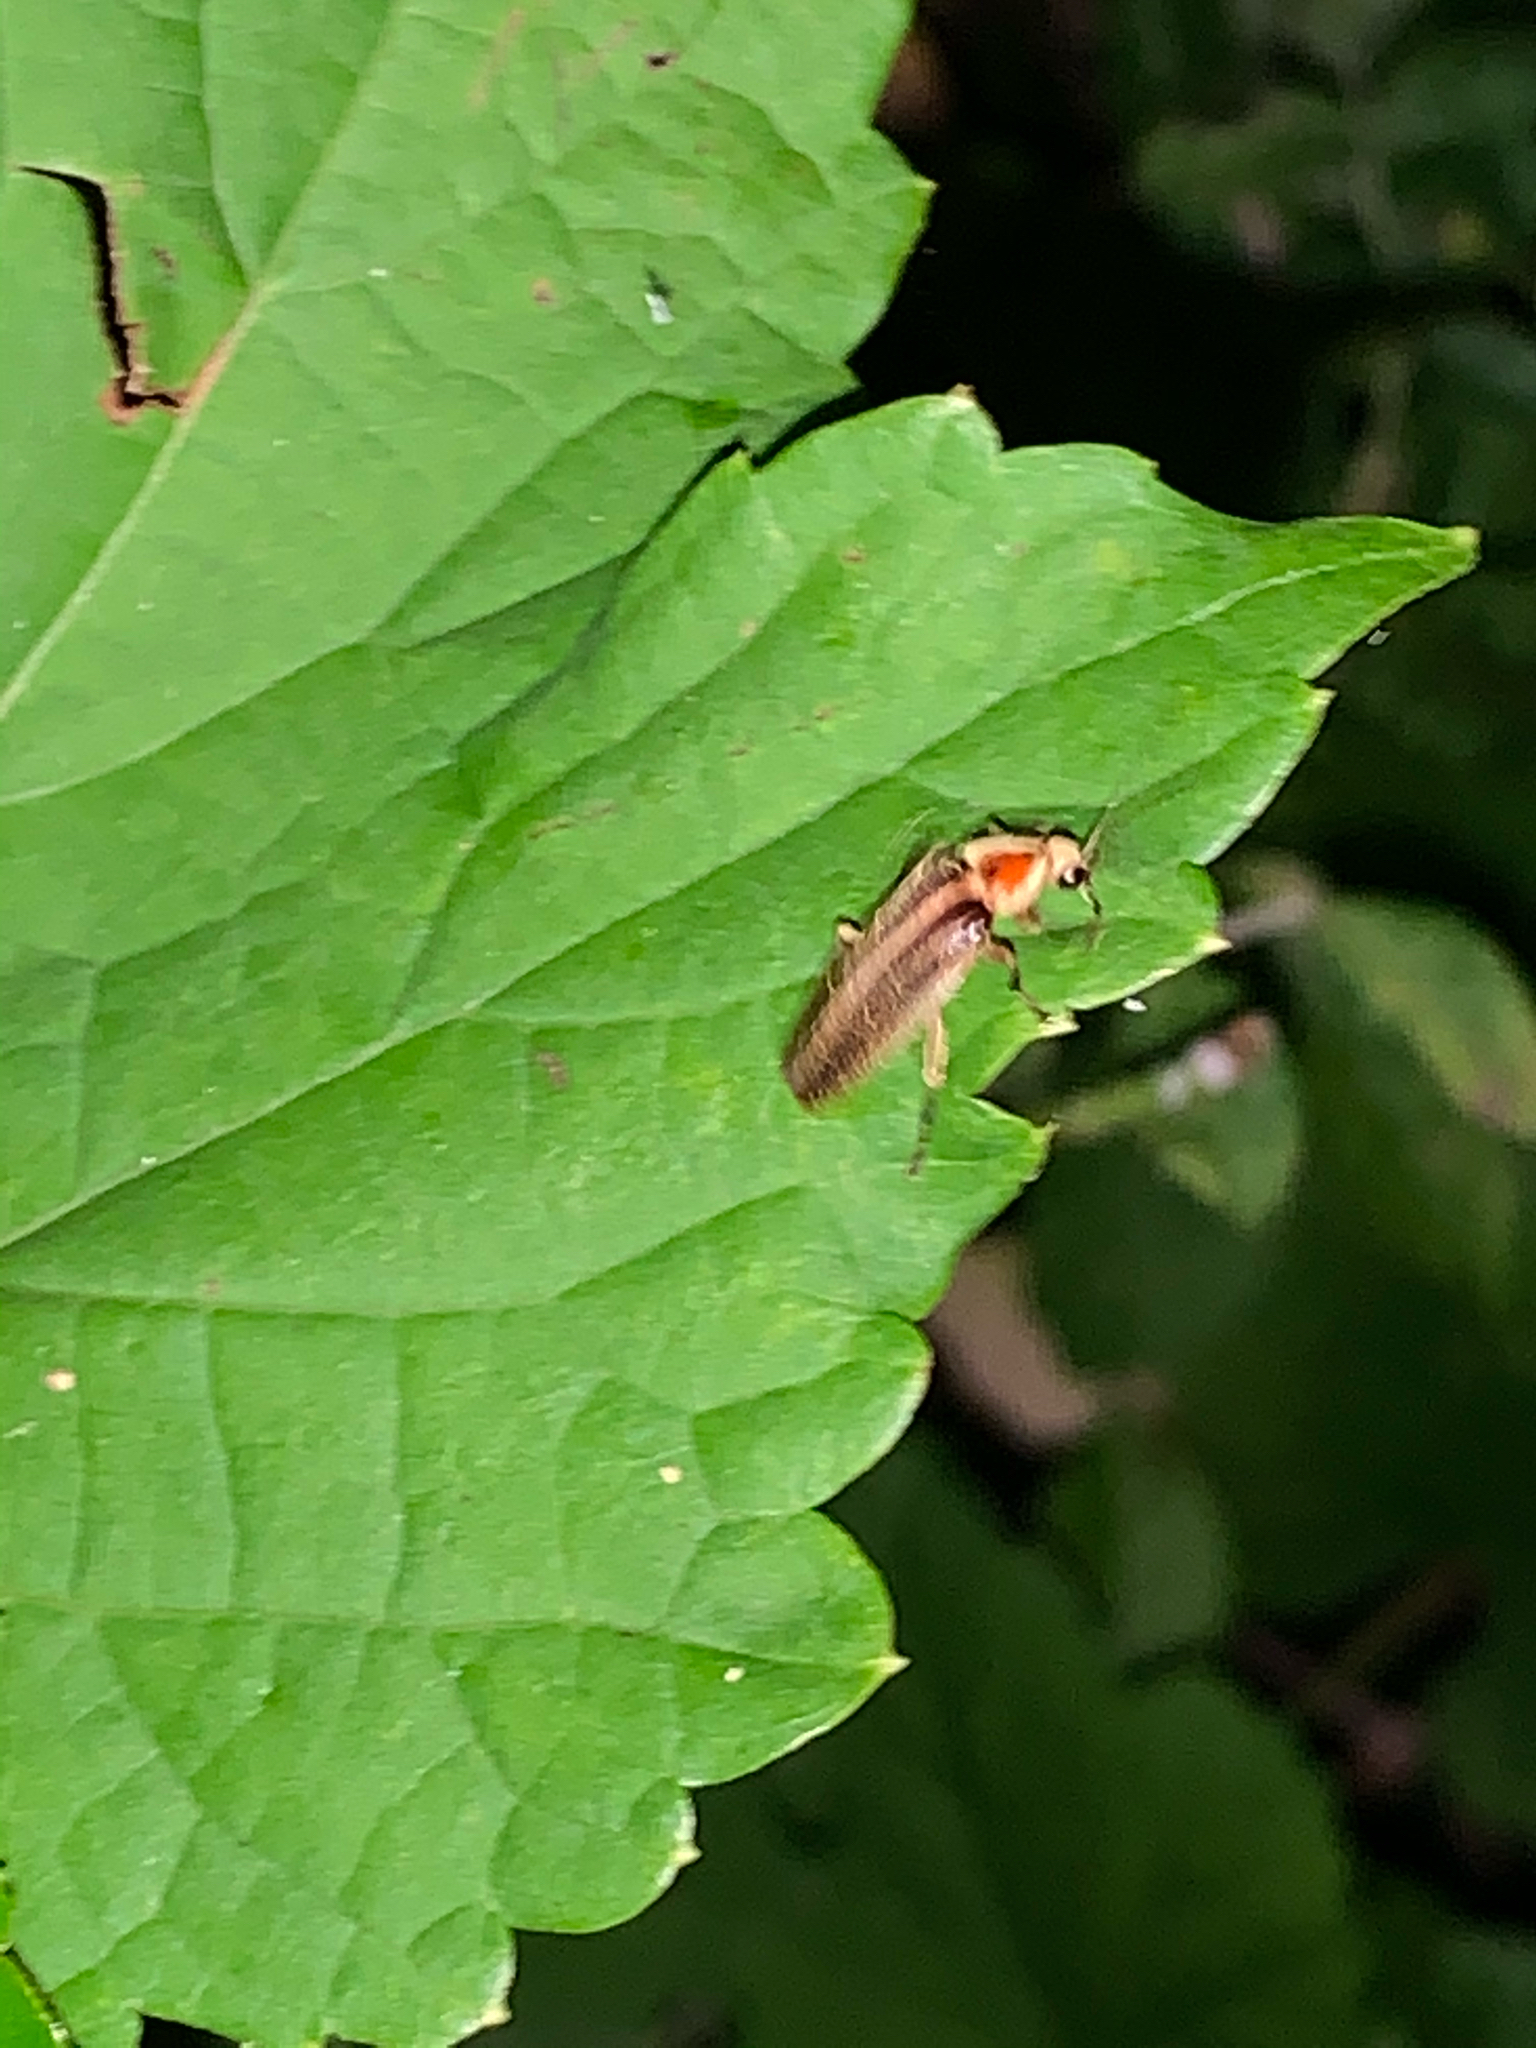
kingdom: Animalia
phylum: Arthropoda
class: Insecta
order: Coleoptera
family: Lampyridae
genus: Photuris
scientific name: Photuris
